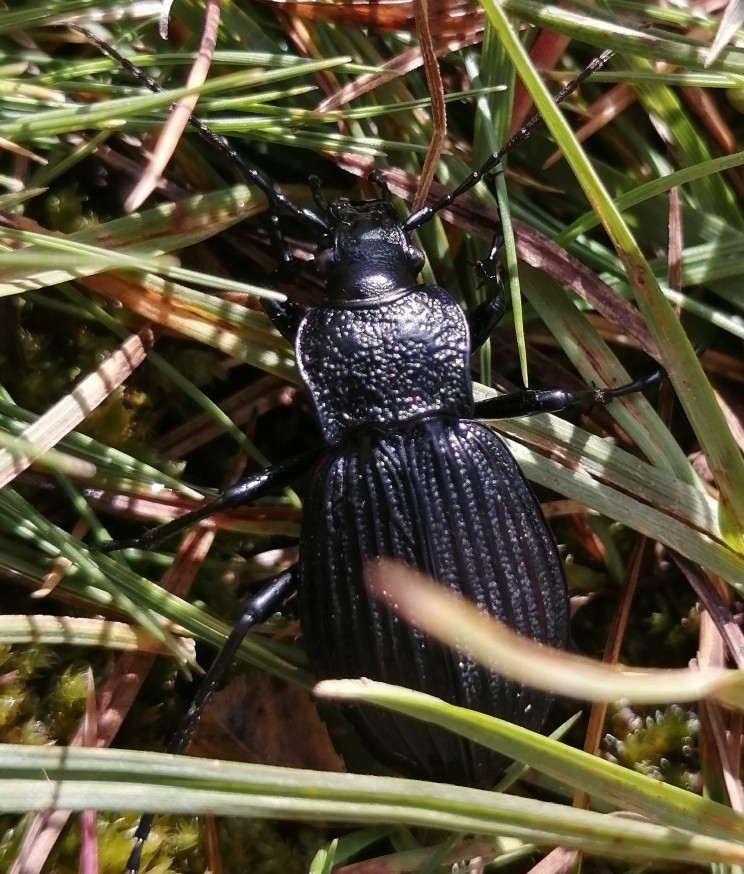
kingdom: Animalia
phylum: Arthropoda
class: Insecta
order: Coleoptera
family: Carabidae
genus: Carabus
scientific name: Carabus exaratus
